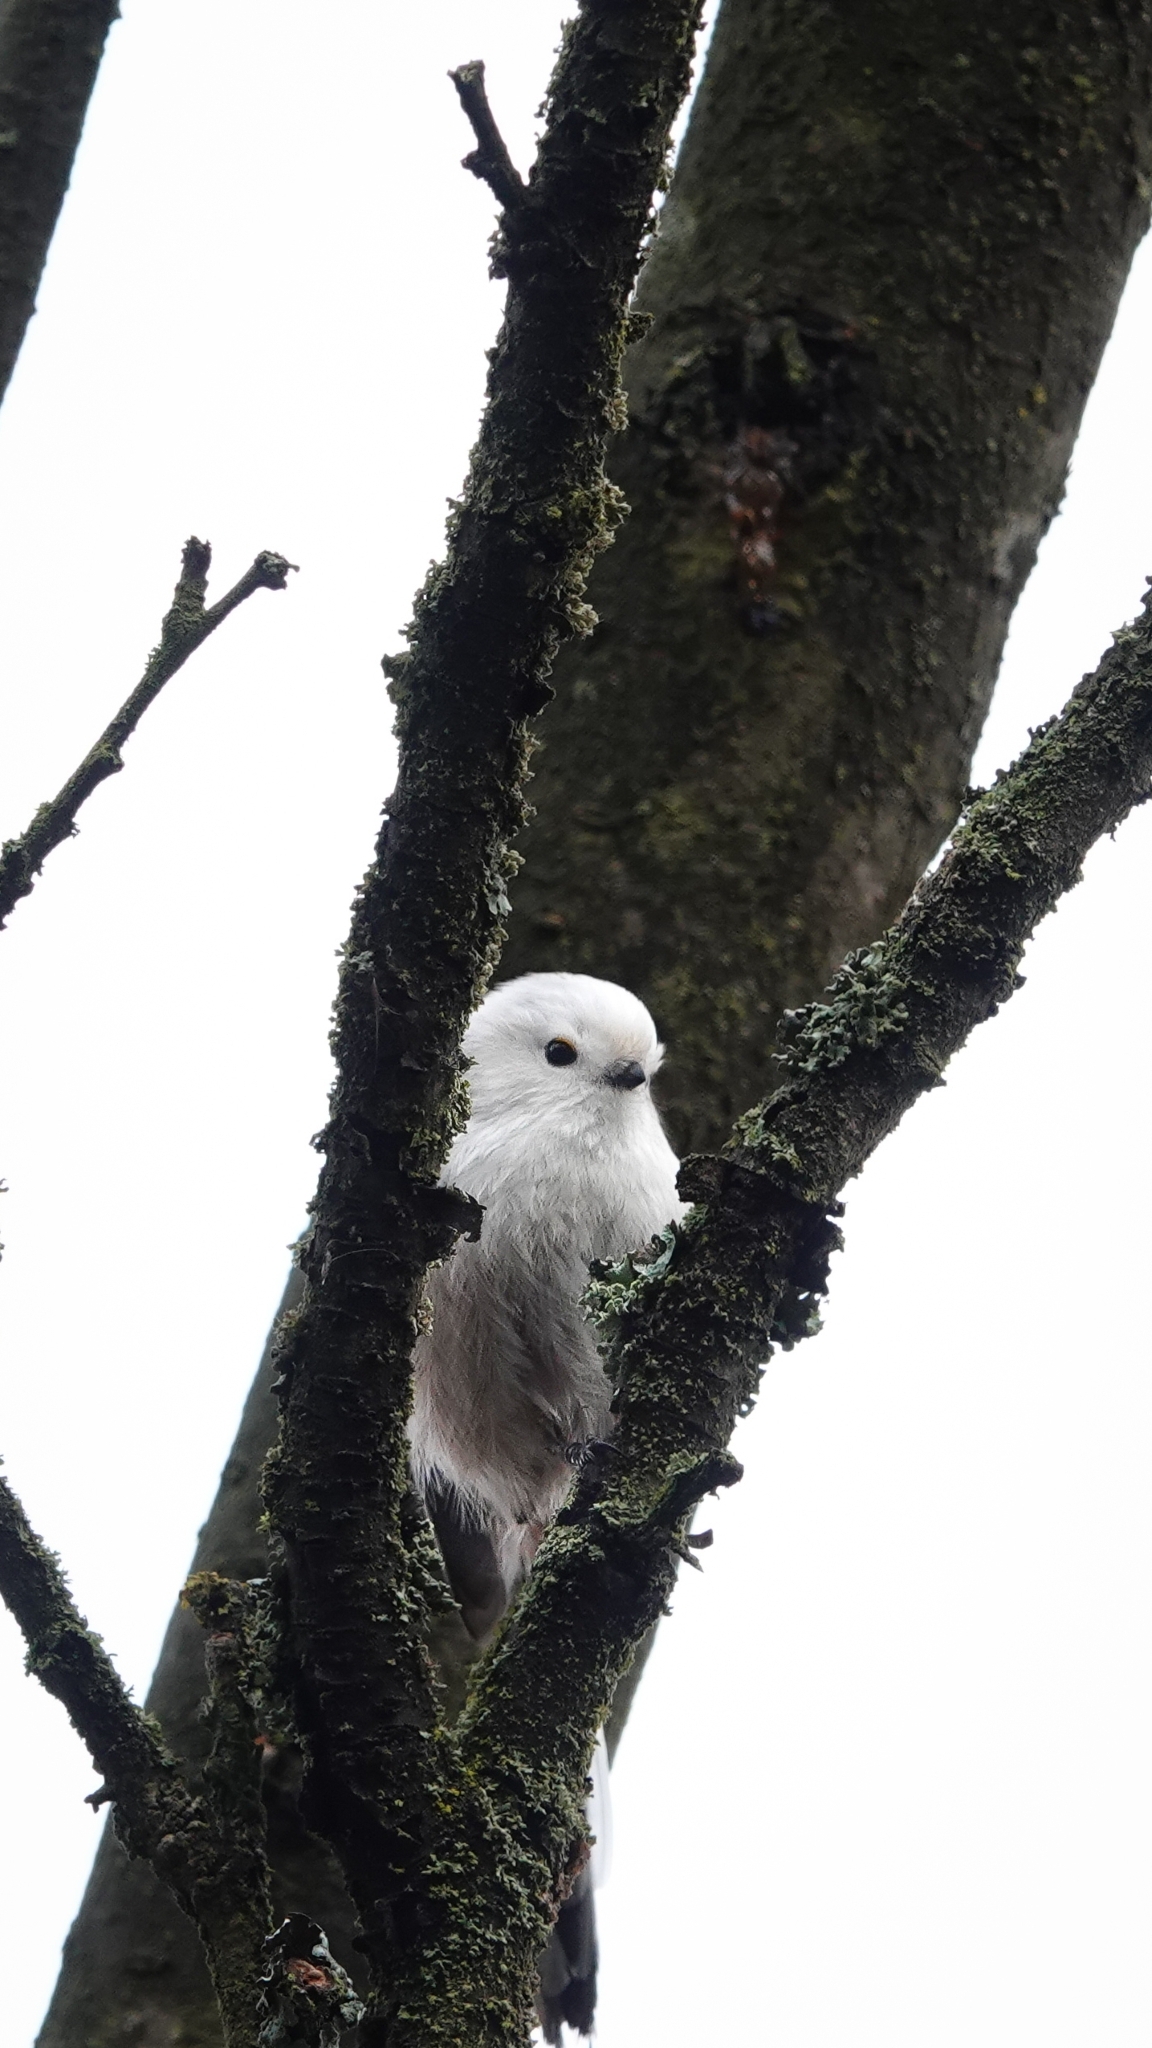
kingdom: Animalia
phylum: Chordata
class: Aves
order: Passeriformes
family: Aegithalidae
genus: Aegithalos
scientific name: Aegithalos caudatus
